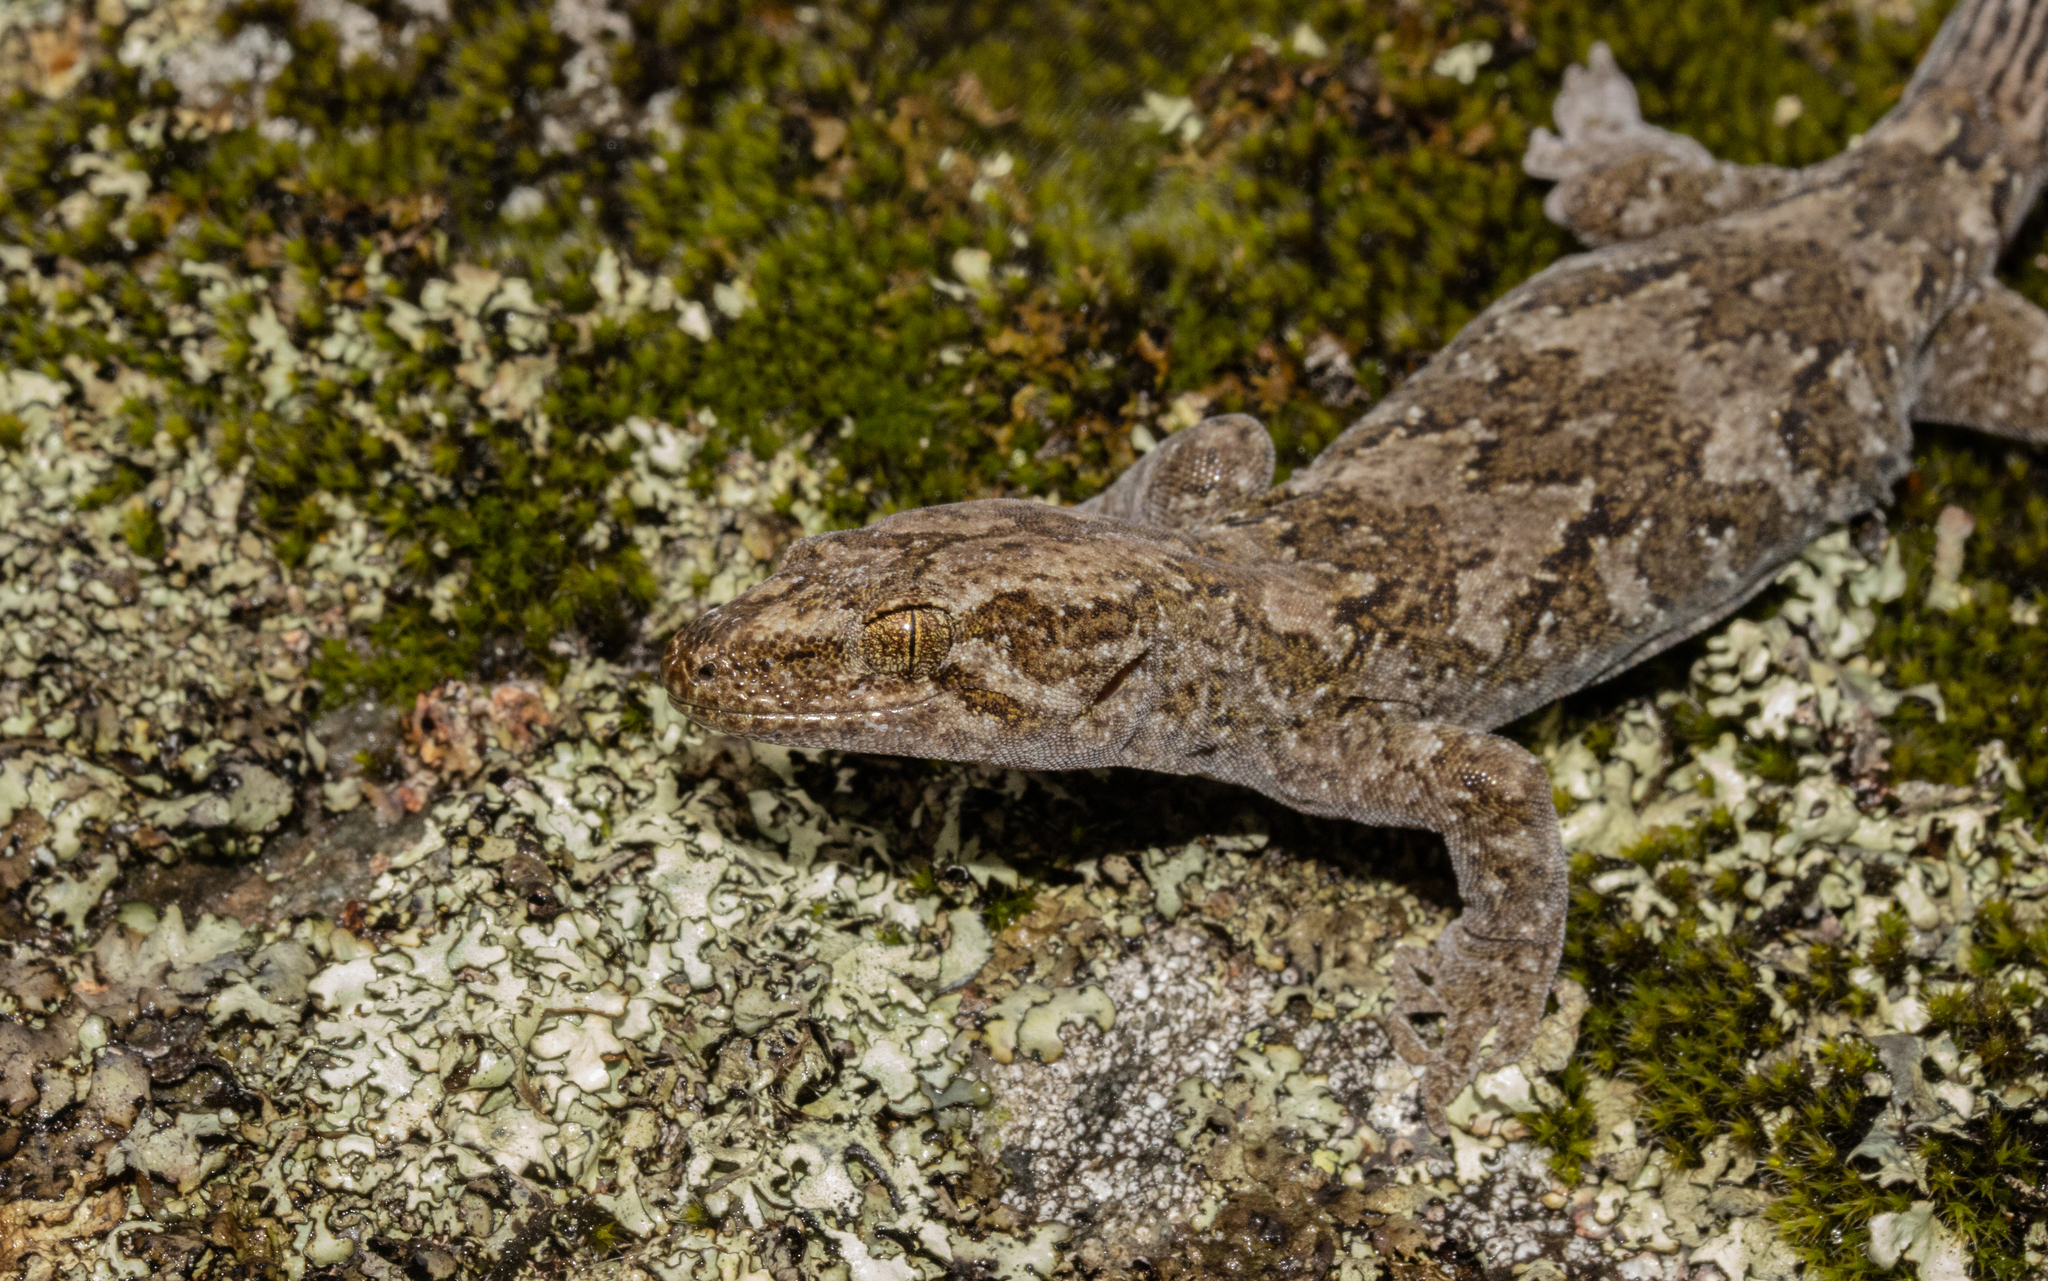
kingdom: Animalia
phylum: Chordata
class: Squamata
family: Diplodactylidae
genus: Woodworthia
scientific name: Woodworthia
